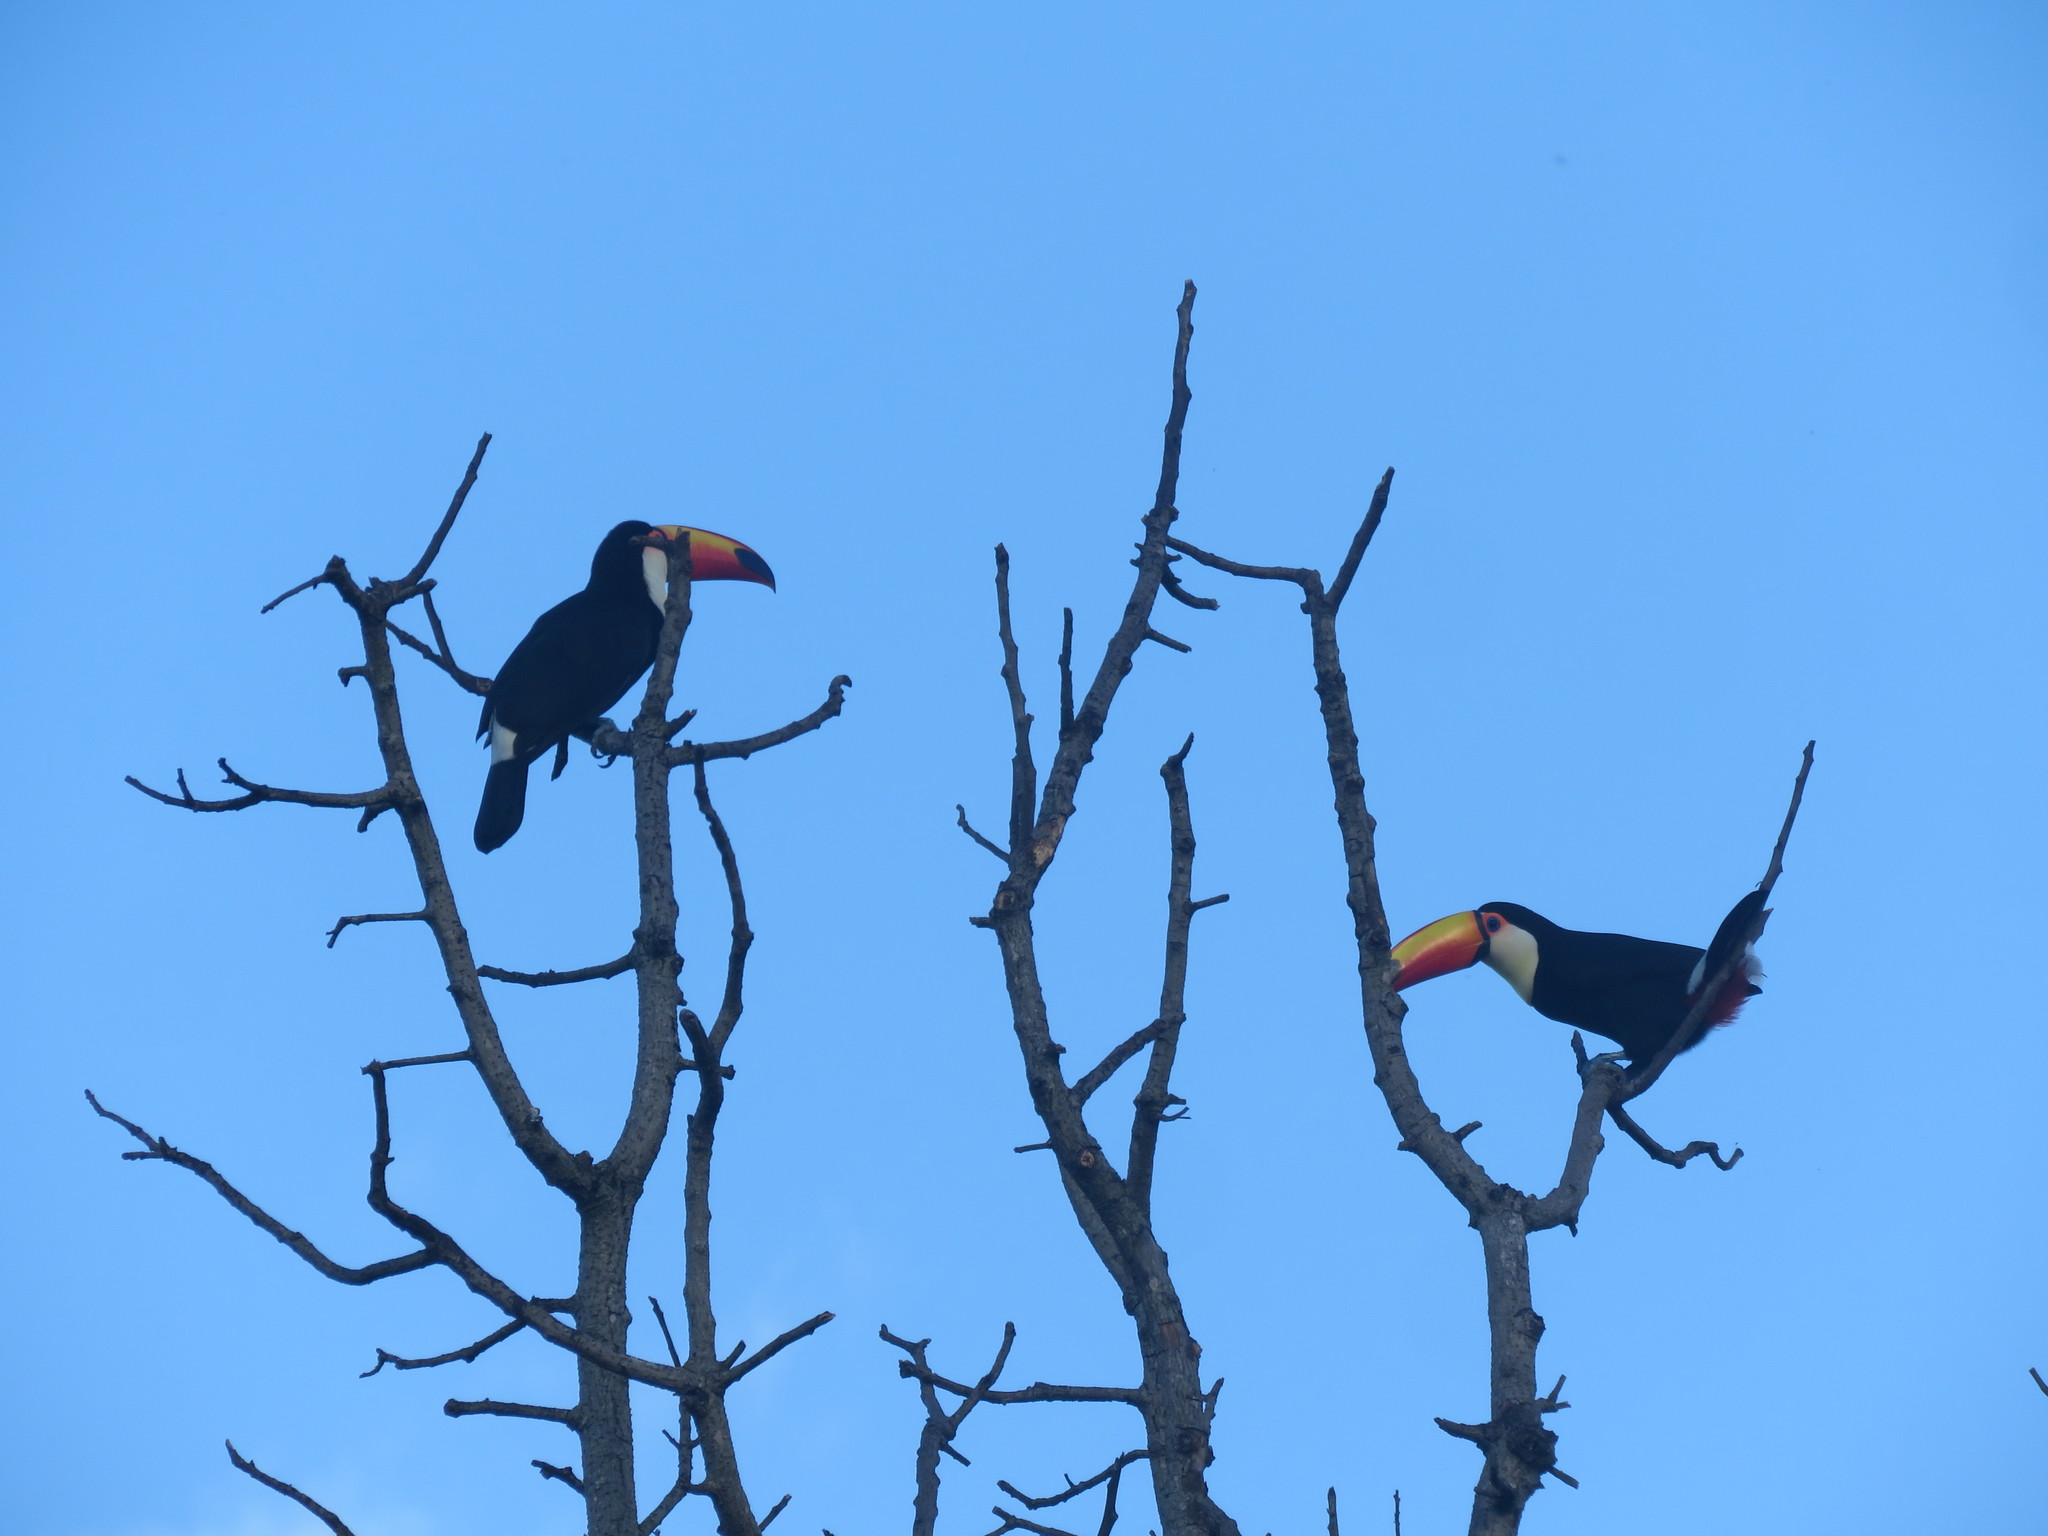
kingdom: Animalia
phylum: Chordata
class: Aves
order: Piciformes
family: Ramphastidae
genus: Ramphastos
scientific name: Ramphastos toco
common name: Toco toucan
